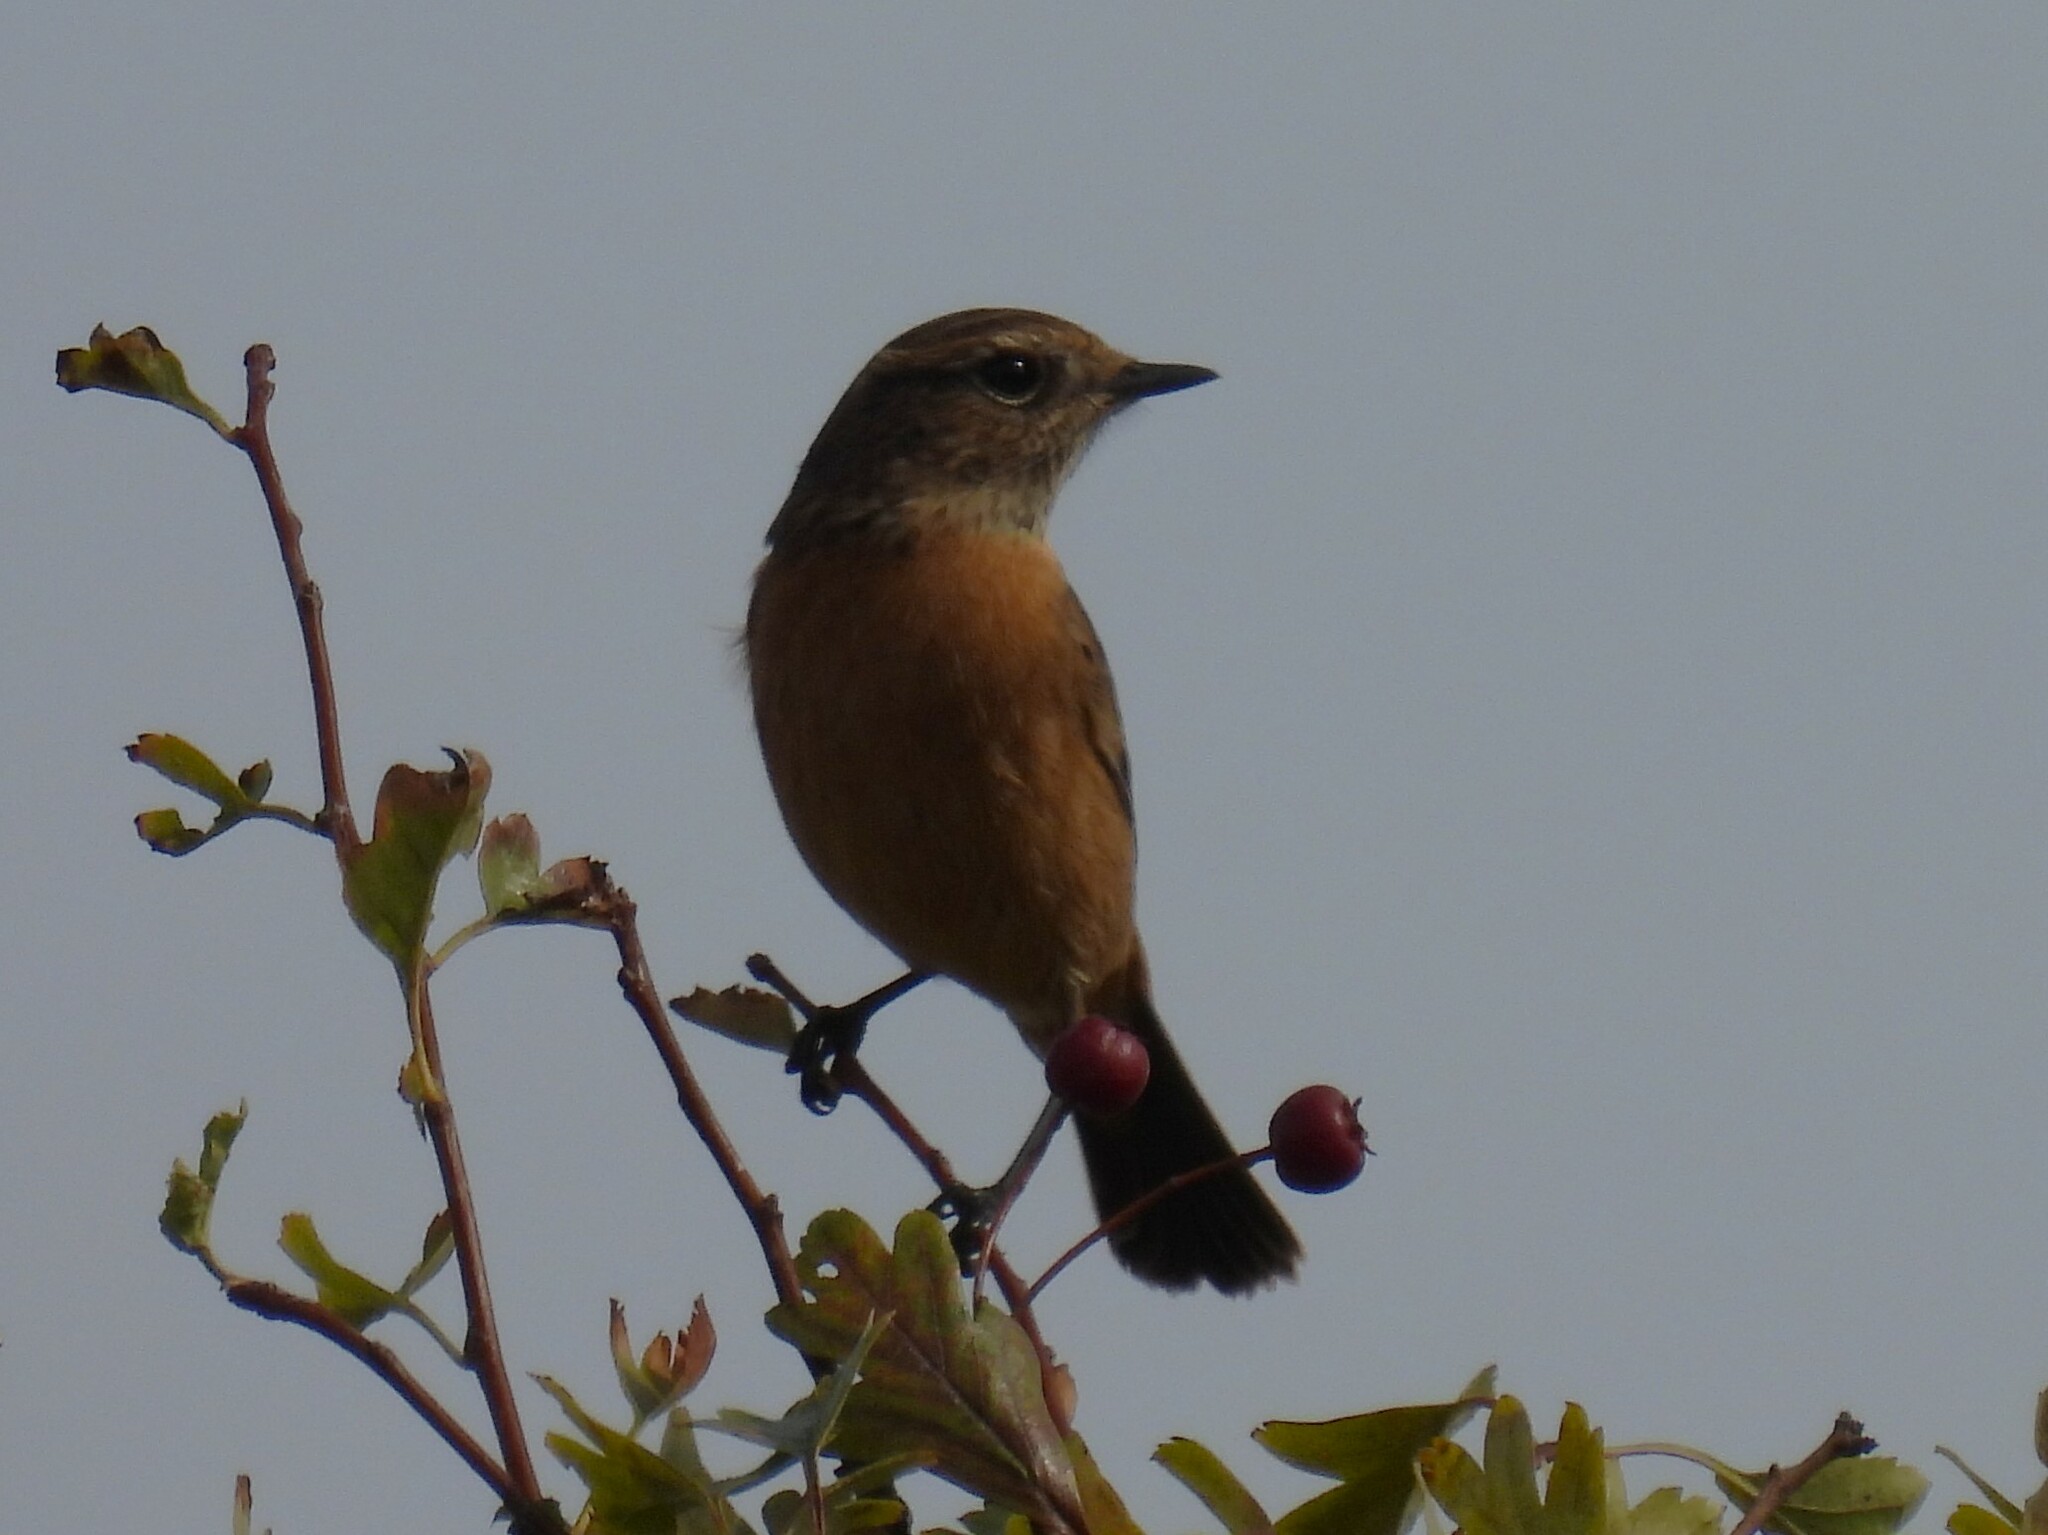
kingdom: Animalia
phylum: Chordata
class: Aves
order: Passeriformes
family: Muscicapidae
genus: Saxicola
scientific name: Saxicola rubicola
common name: European stonechat
